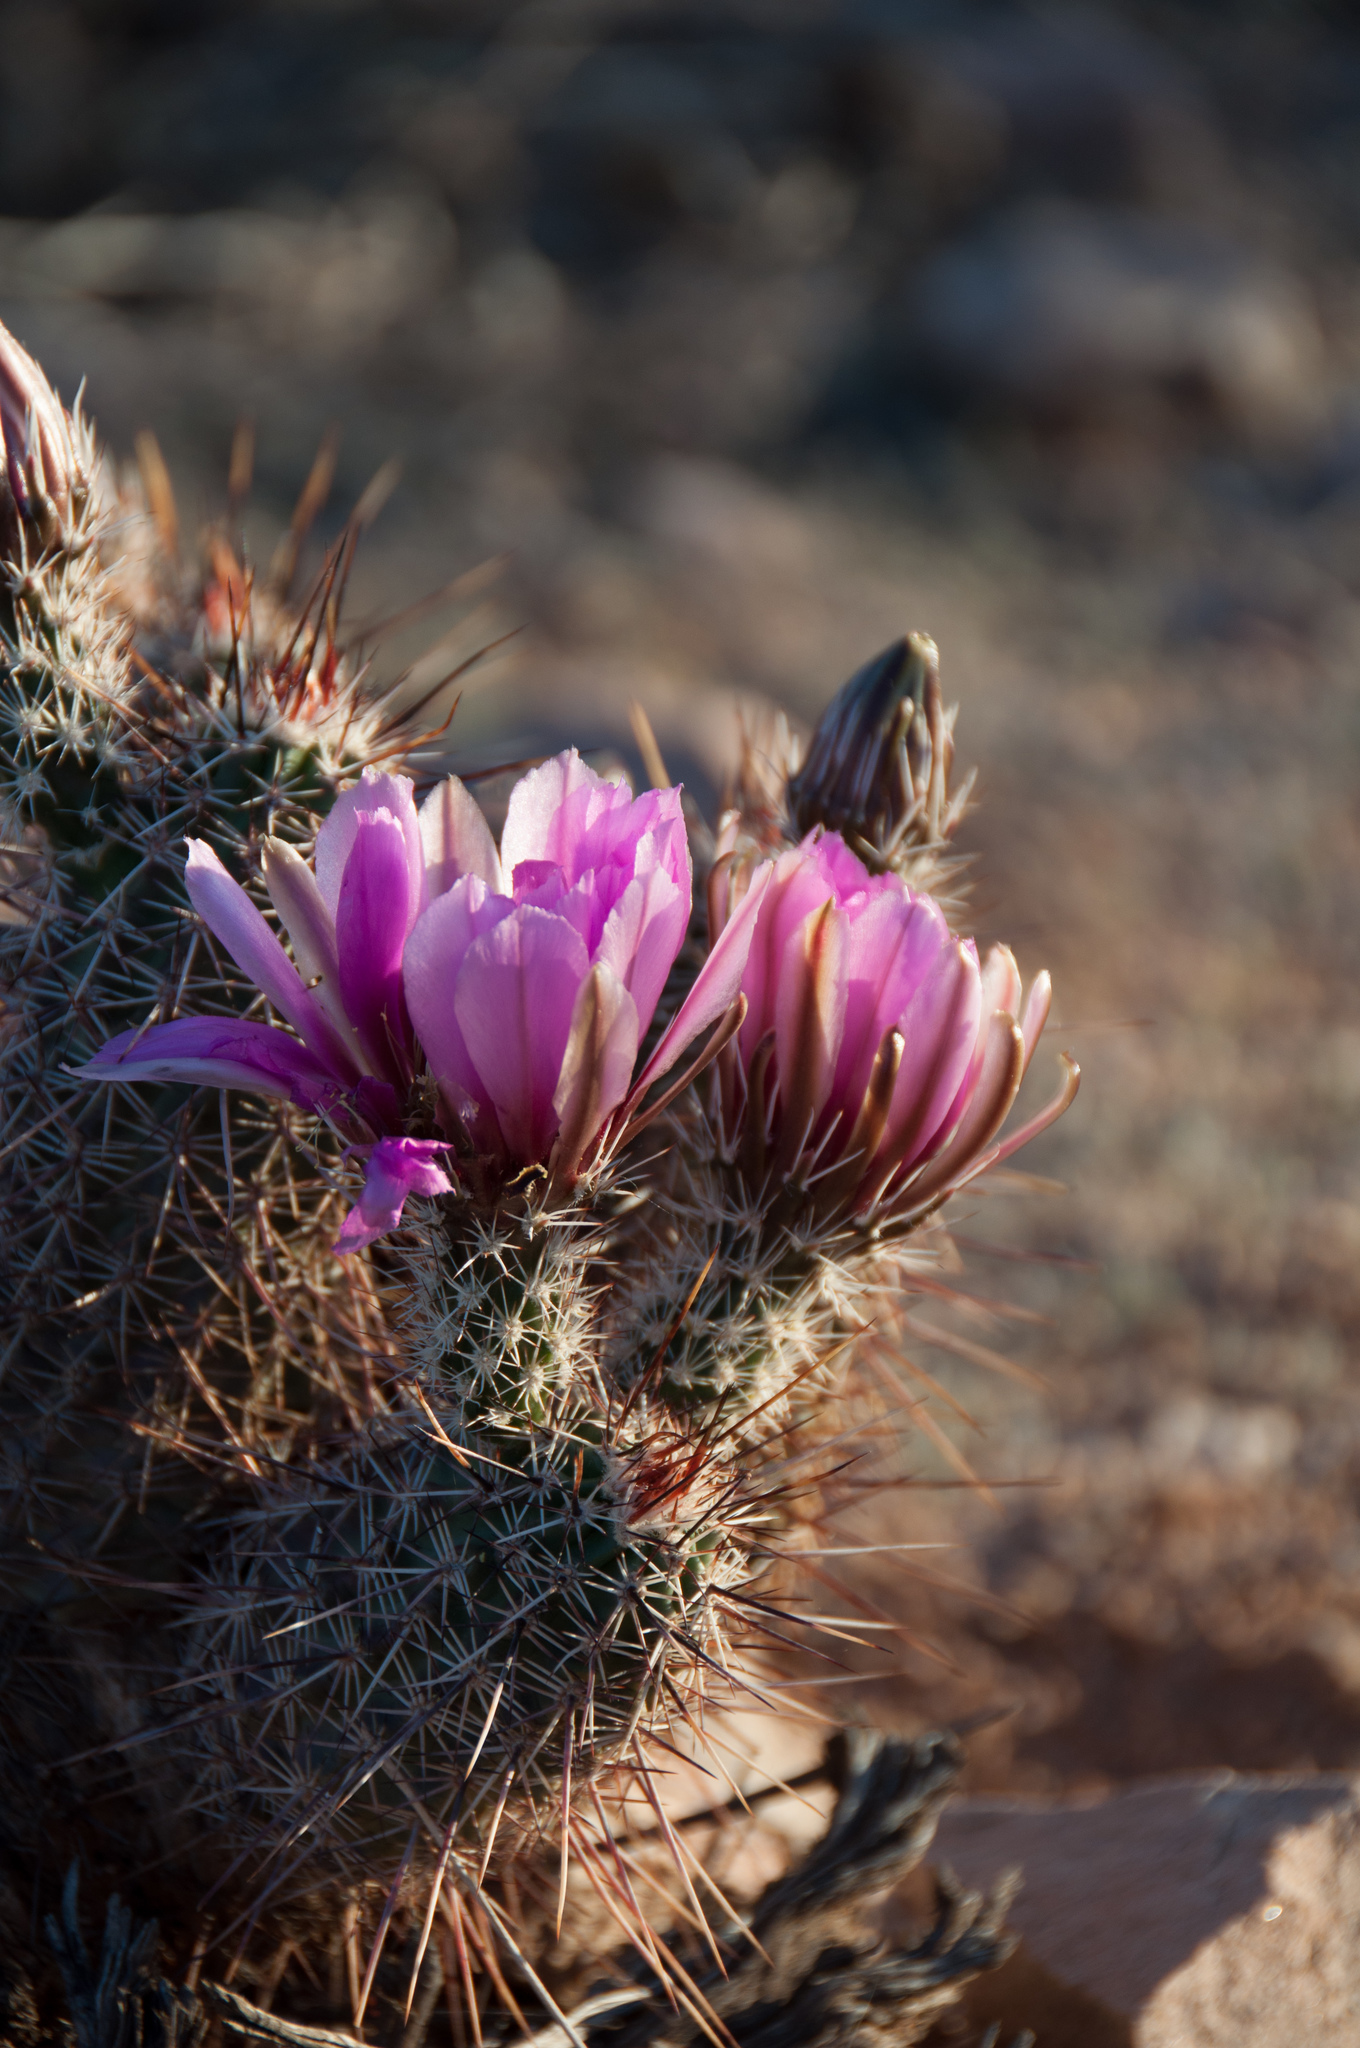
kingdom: Plantae
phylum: Tracheophyta
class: Magnoliopsida
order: Caryophyllales
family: Cactaceae
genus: Echinocereus
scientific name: Echinocereus fasciculatus
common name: Bundle hedgehog
